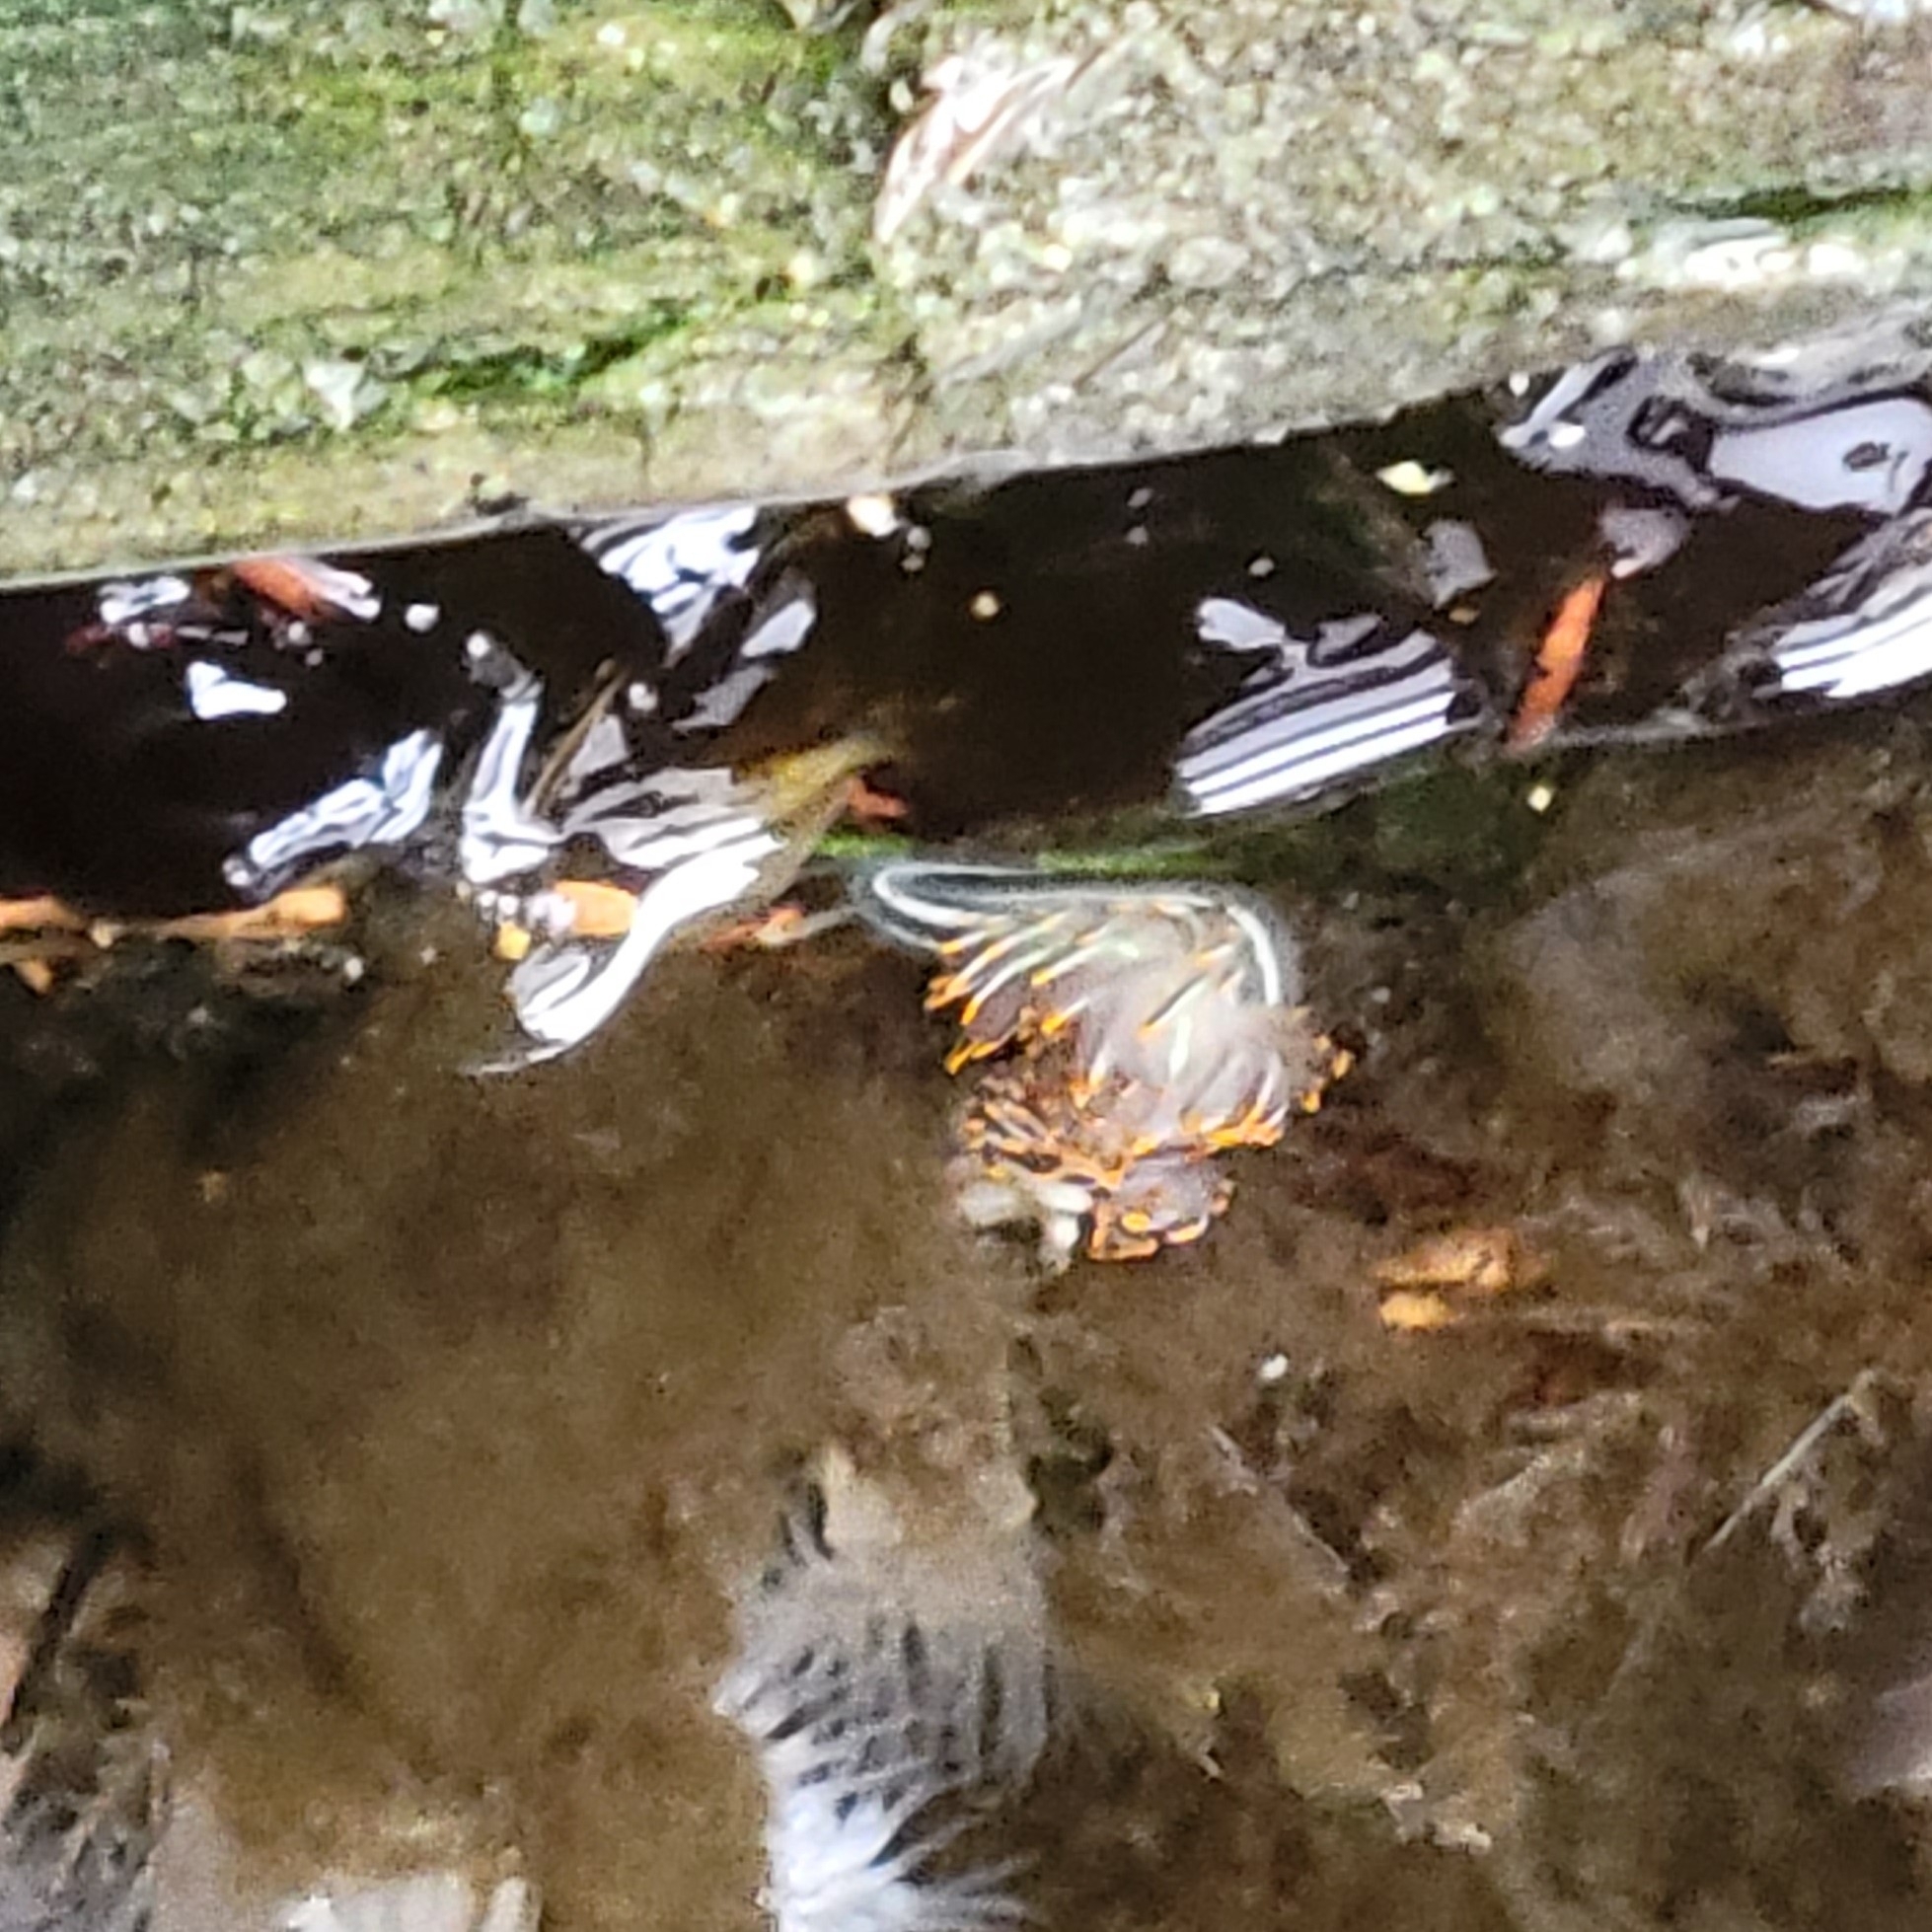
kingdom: Animalia
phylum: Mollusca
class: Gastropoda
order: Nudibranchia
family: Myrrhinidae
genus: Hermissenda
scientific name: Hermissenda crassicornis
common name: Hermissenda
